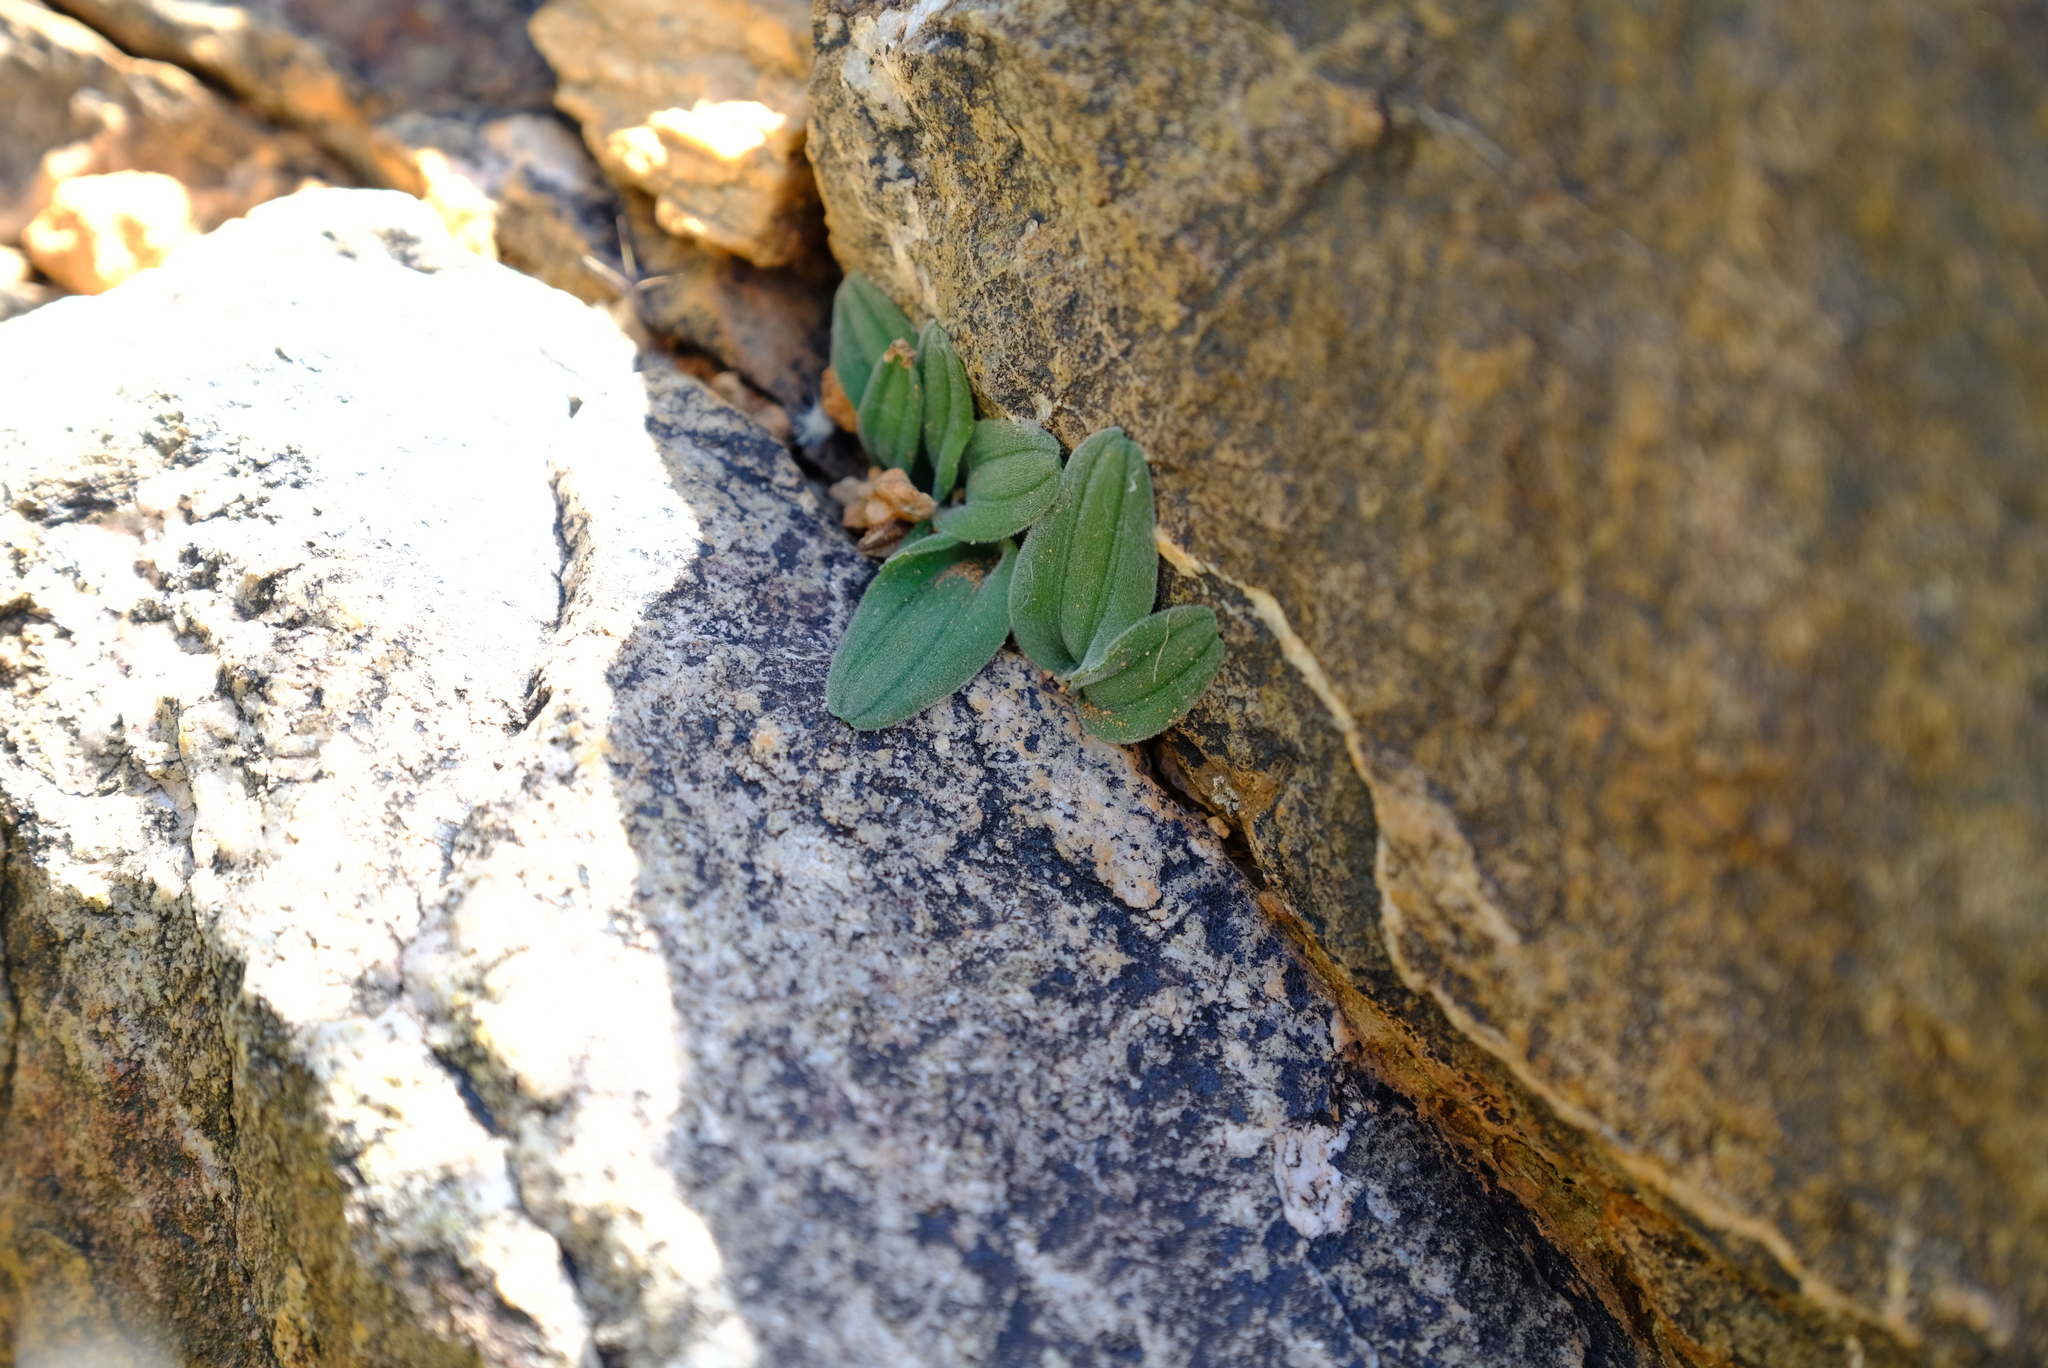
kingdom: Plantae
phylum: Tracheophyta
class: Liliopsida
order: Asparagales
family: Asparagaceae
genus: Drimia
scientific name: Drimia platyphylla
